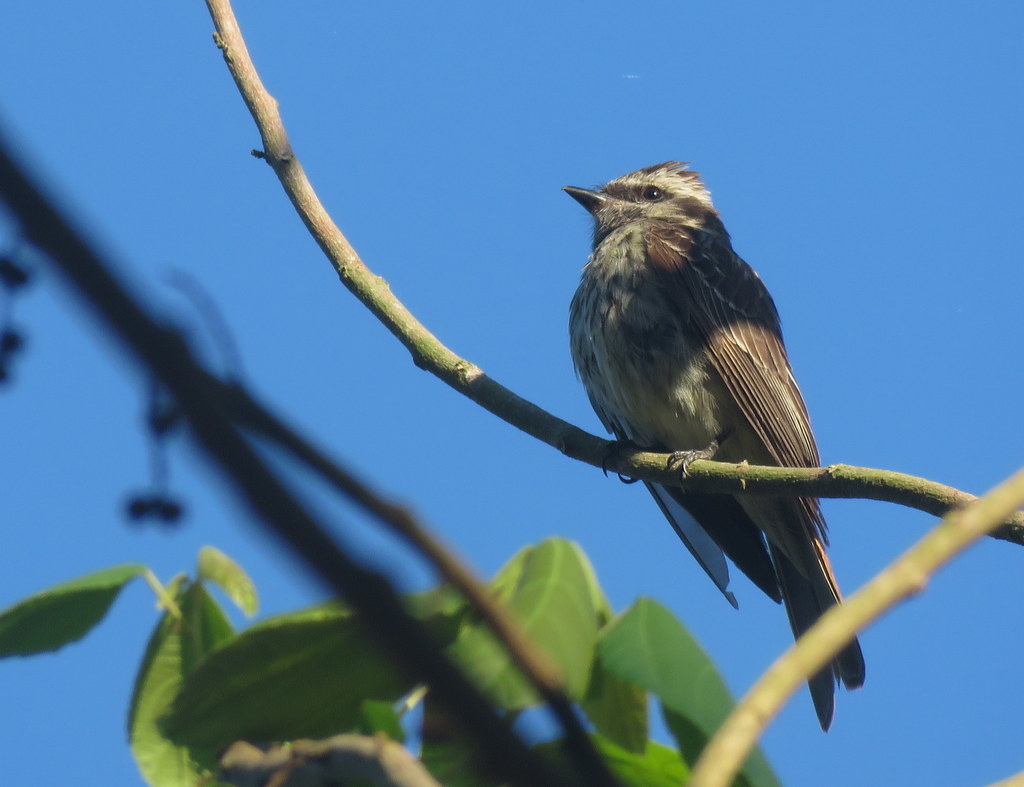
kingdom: Animalia
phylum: Chordata
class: Aves
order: Passeriformes
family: Tyrannidae
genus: Empidonomus
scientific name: Empidonomus varius
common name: Variegated flycatcher
